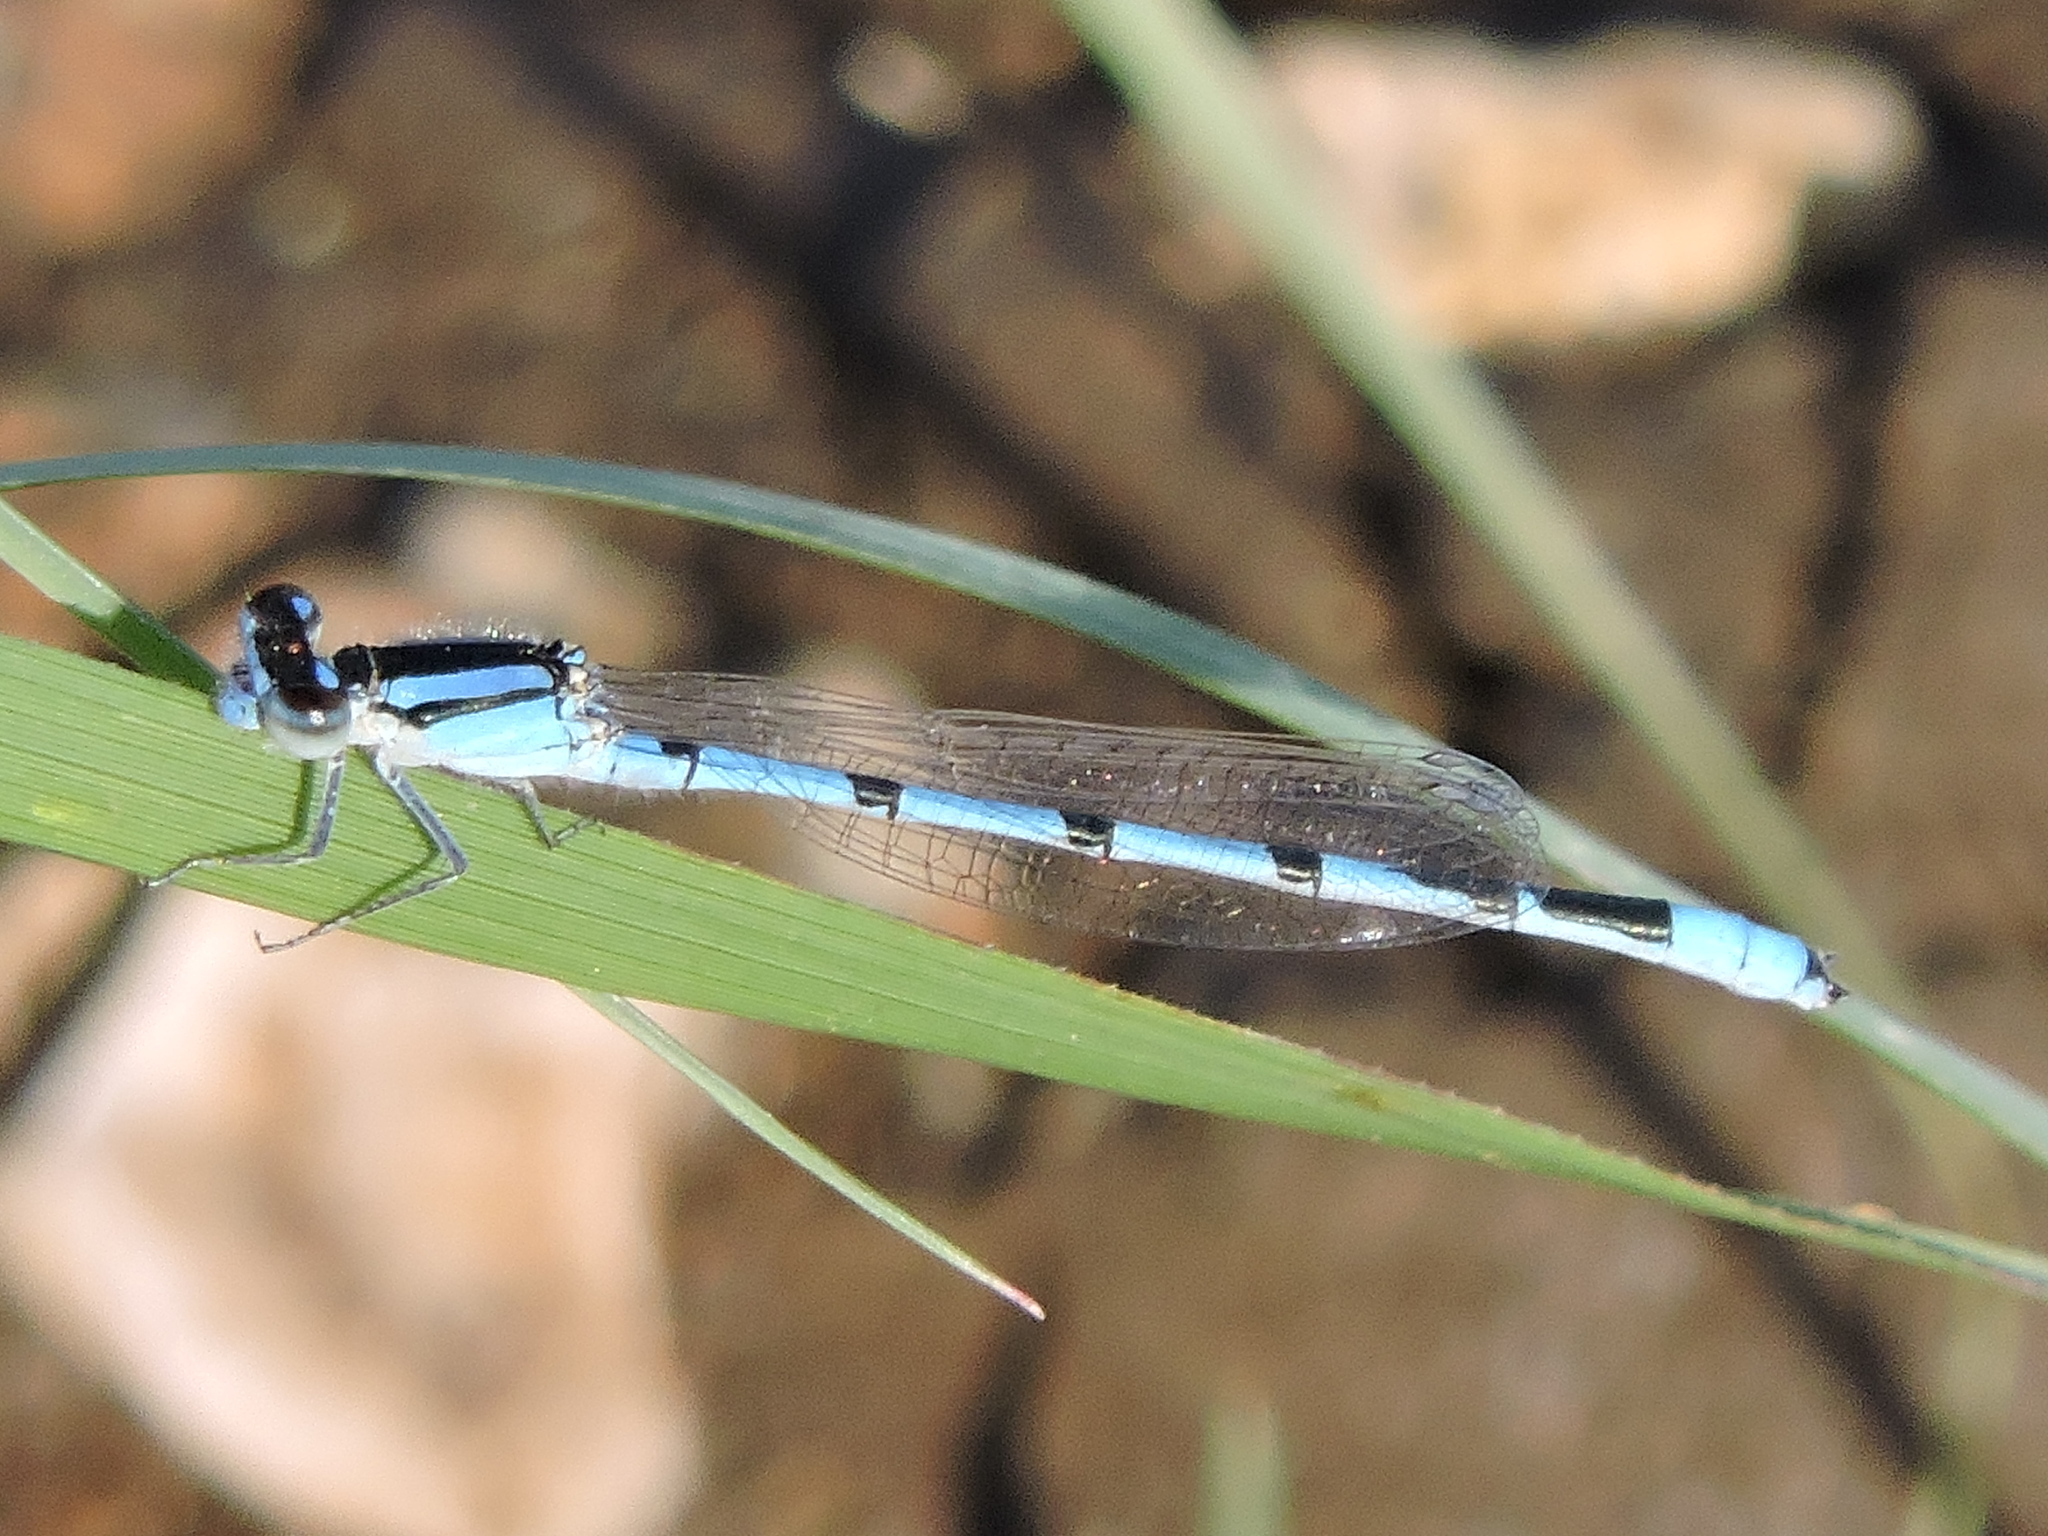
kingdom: Animalia
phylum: Arthropoda
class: Insecta
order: Odonata
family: Coenagrionidae
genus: Enallagma
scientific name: Enallagma civile
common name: Damselfly
